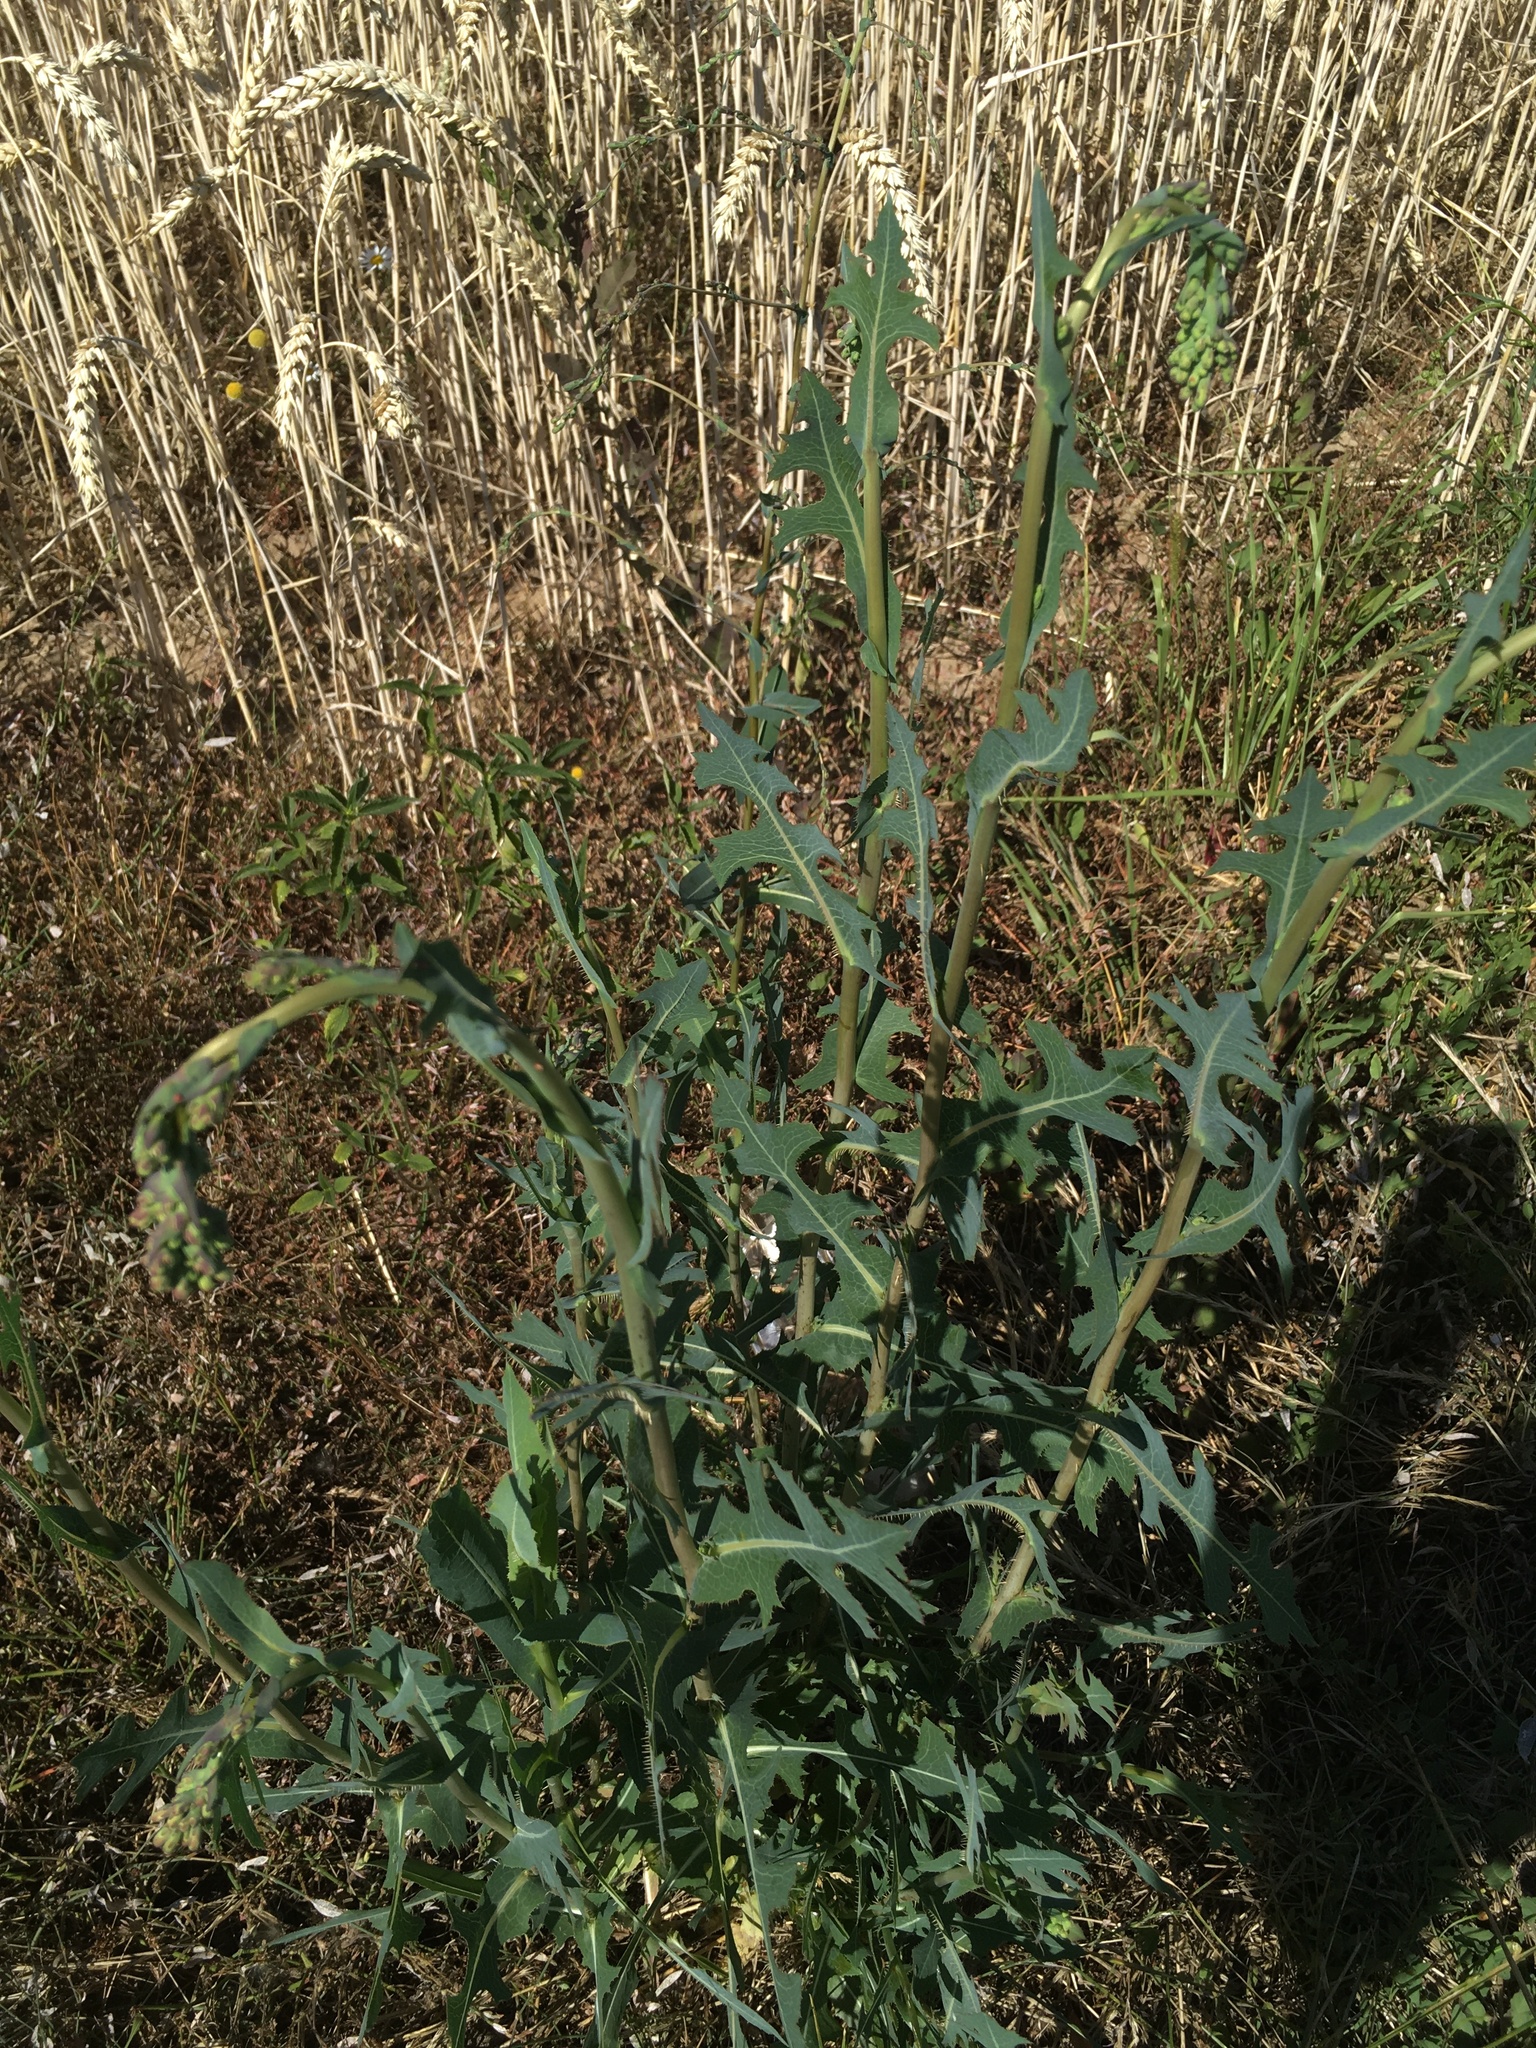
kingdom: Plantae
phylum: Tracheophyta
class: Magnoliopsida
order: Asterales
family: Asteraceae
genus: Lactuca
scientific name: Lactuca serriola
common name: Prickly lettuce
